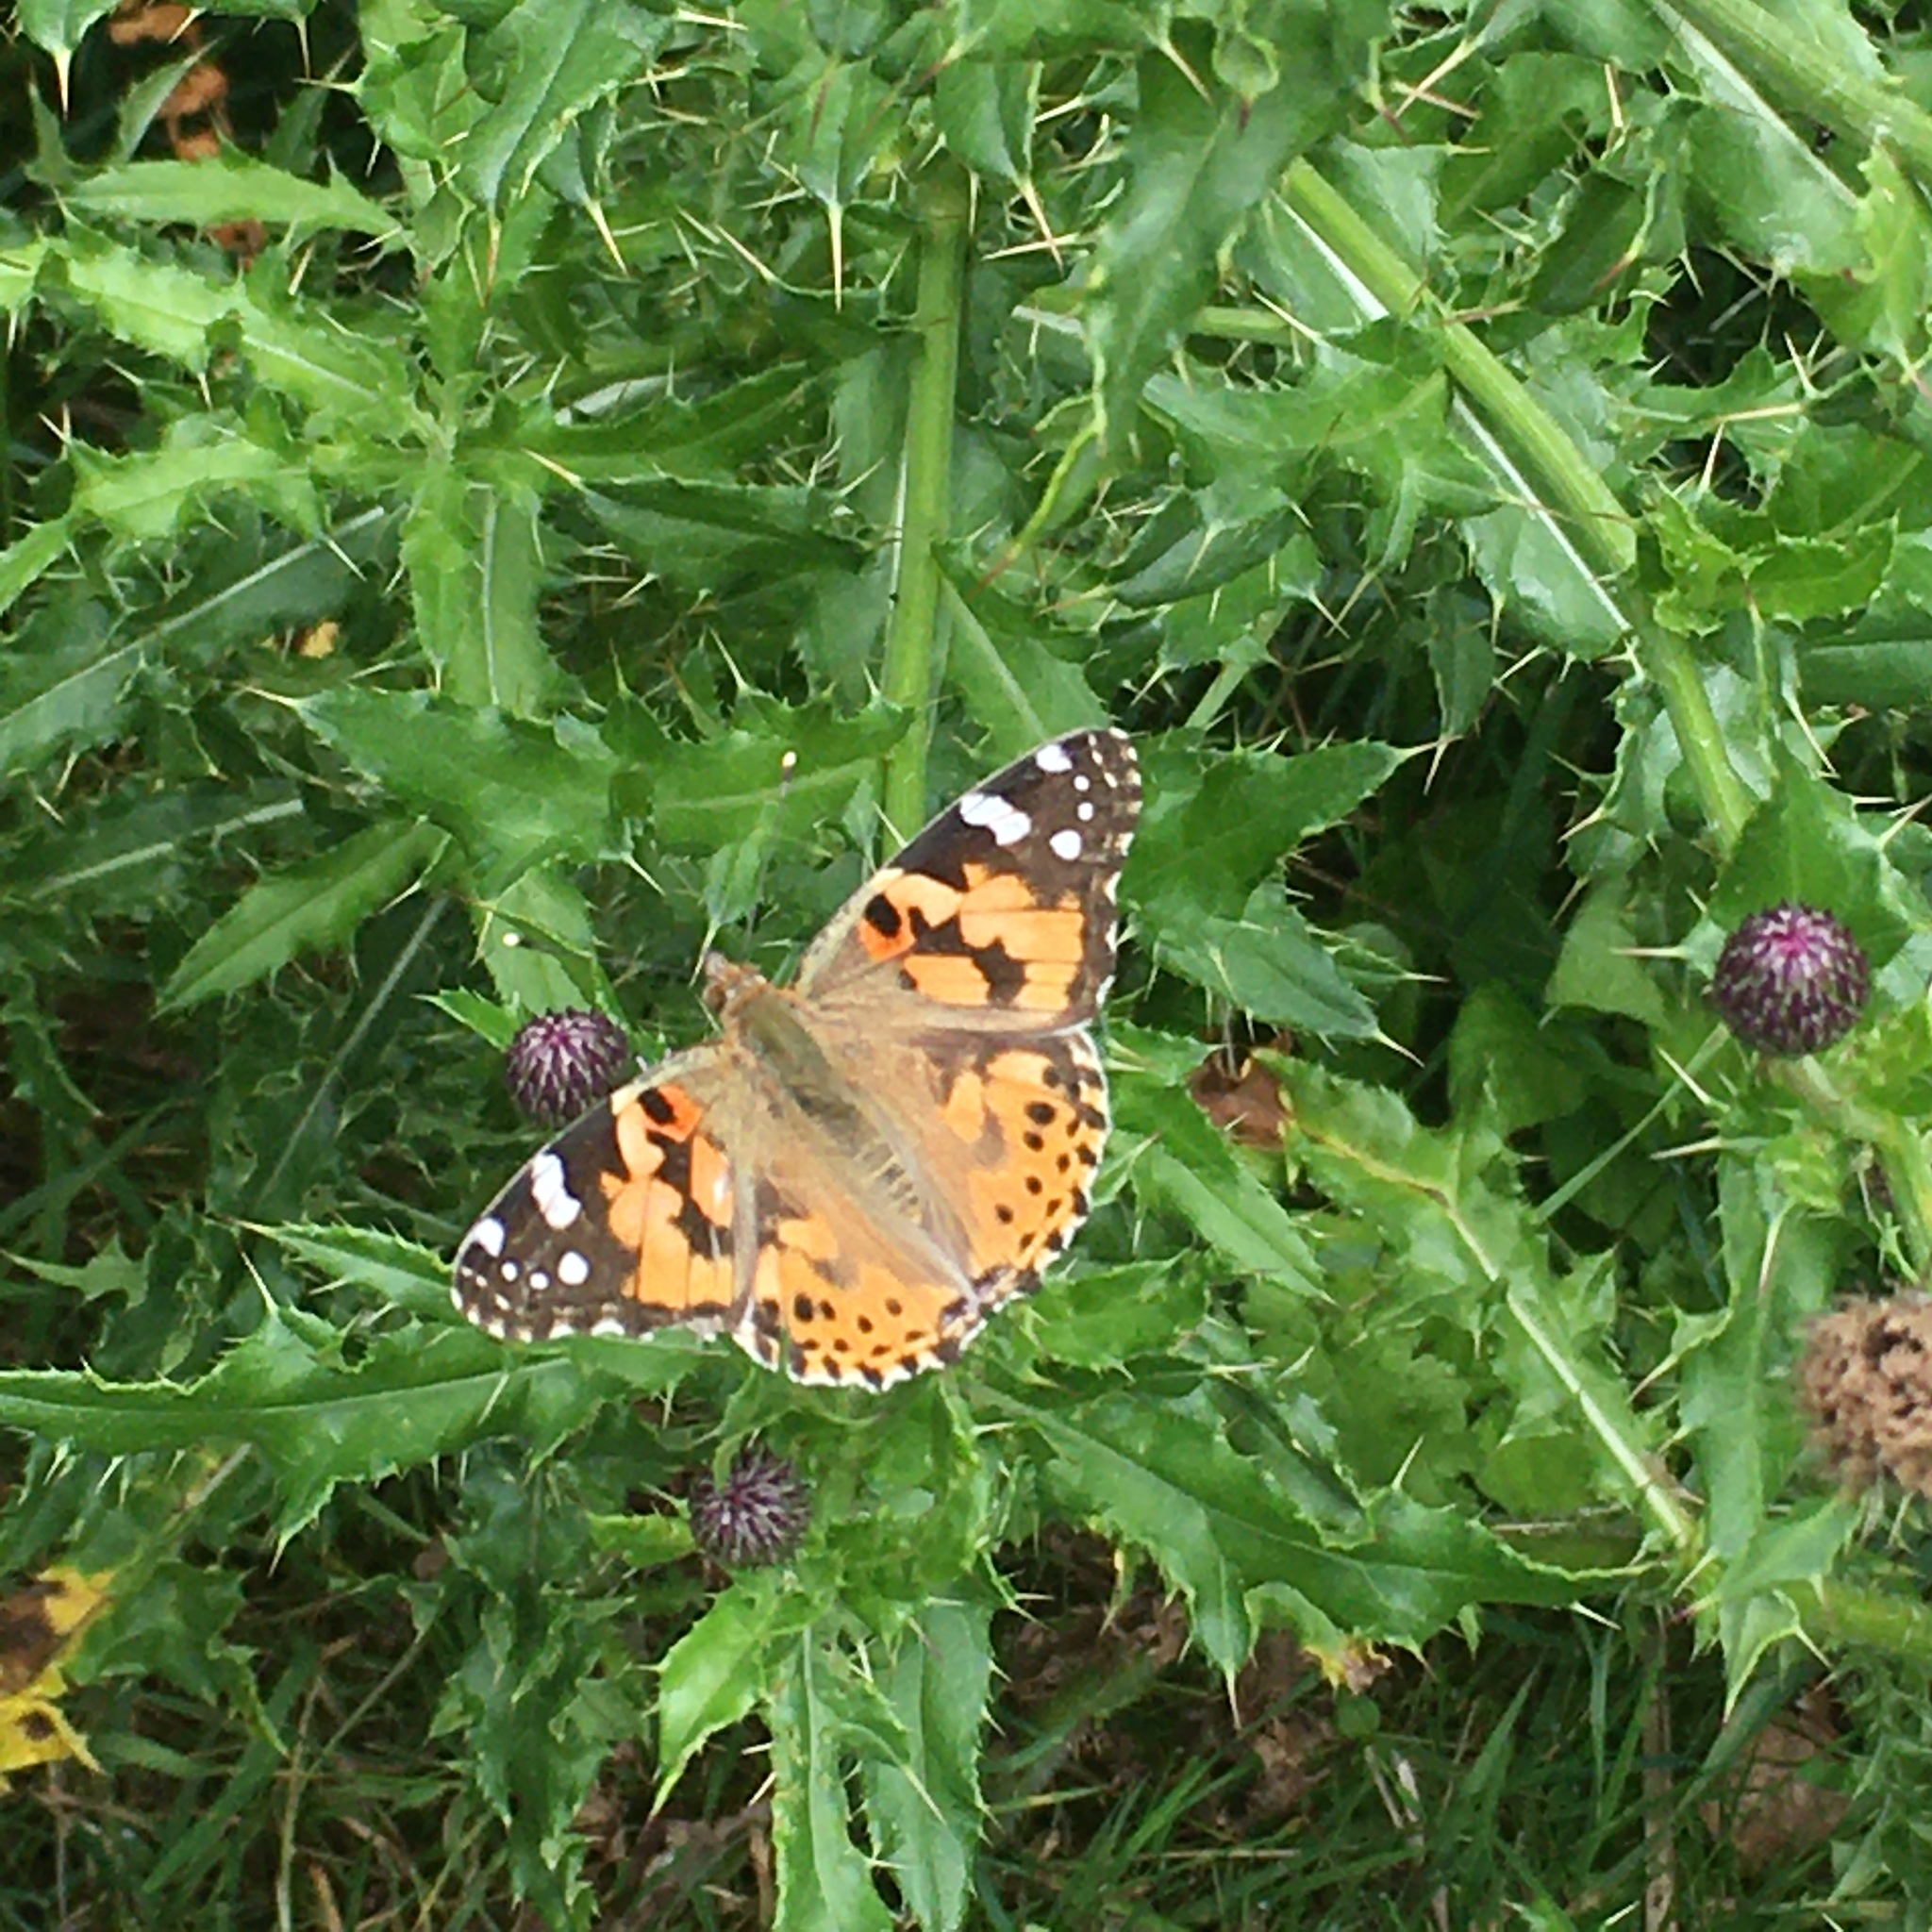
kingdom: Animalia
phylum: Arthropoda
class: Insecta
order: Lepidoptera
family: Nymphalidae
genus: Vanessa
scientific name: Vanessa cardui
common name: Painted lady
